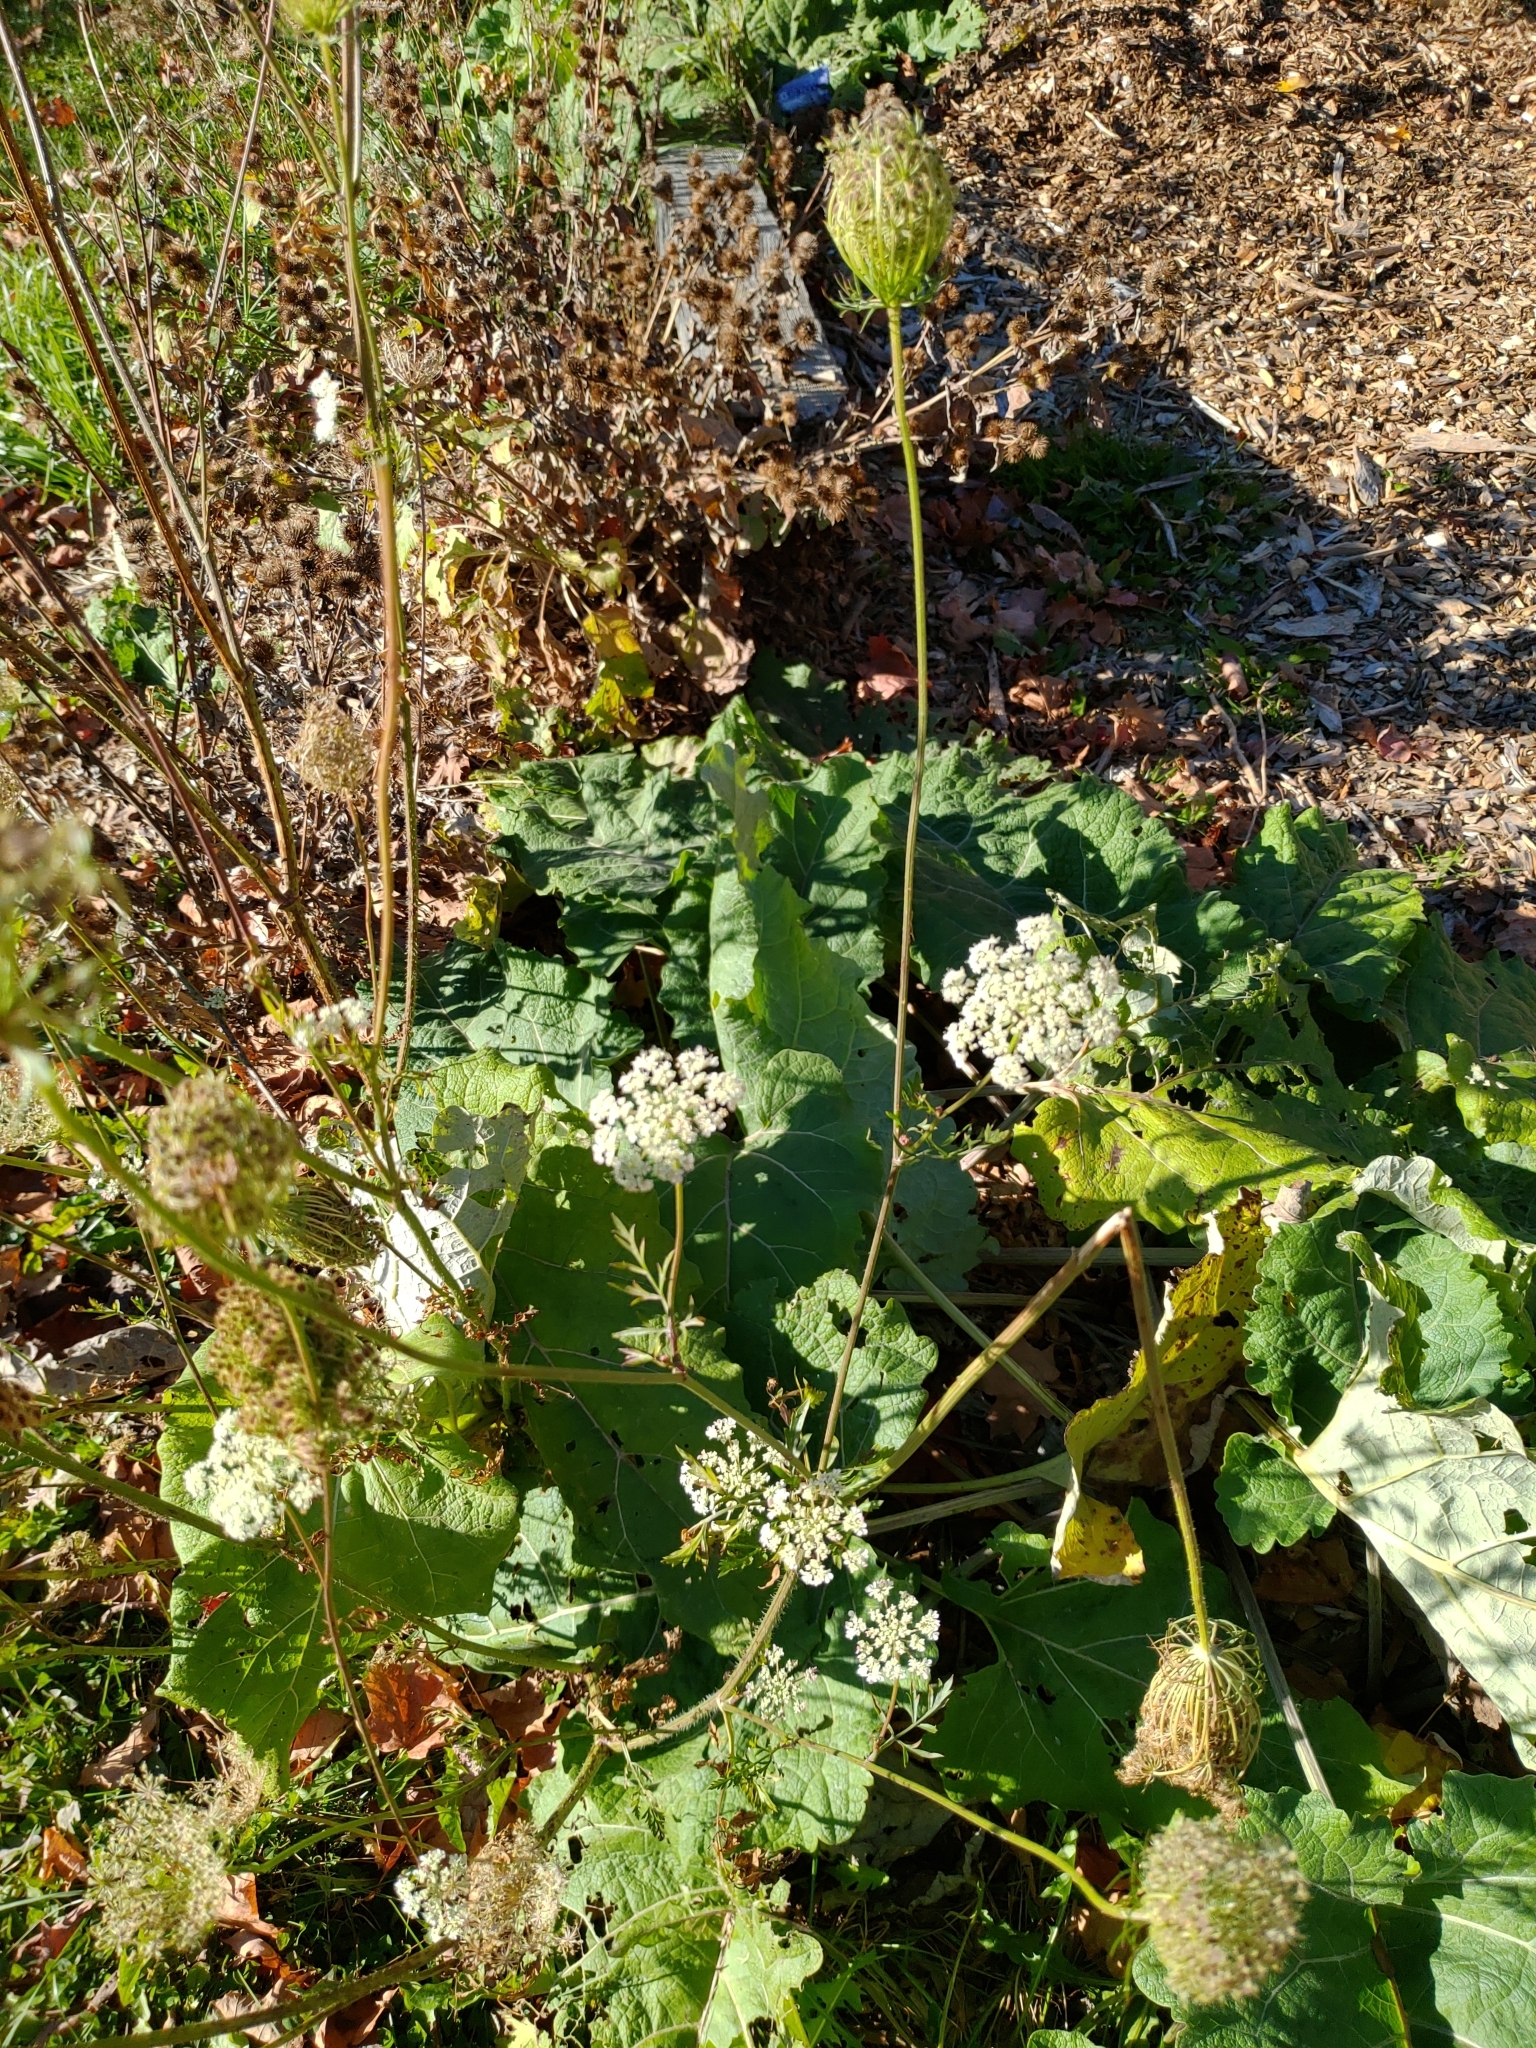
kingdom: Plantae
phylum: Tracheophyta
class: Magnoliopsida
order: Apiales
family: Apiaceae
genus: Daucus
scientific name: Daucus carota
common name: Wild carrot
